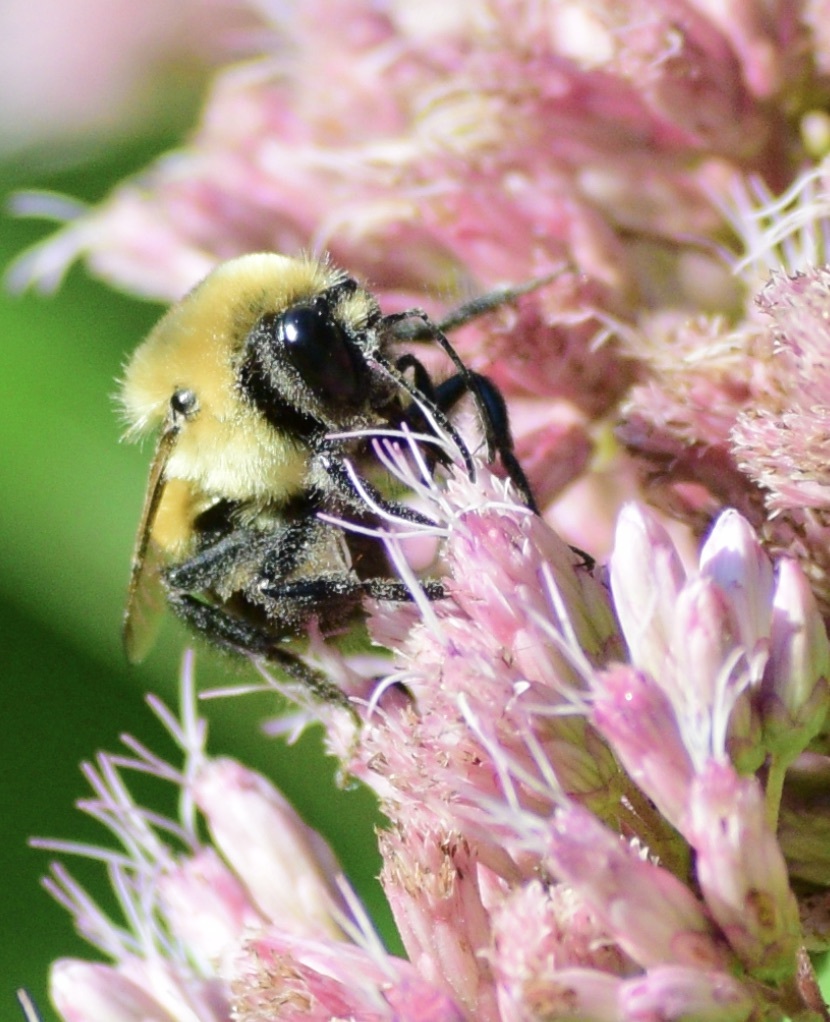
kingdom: Animalia
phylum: Arthropoda
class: Insecta
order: Hymenoptera
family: Apidae
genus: Bombus
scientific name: Bombus griseocollis
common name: Brown-belted bumble bee
